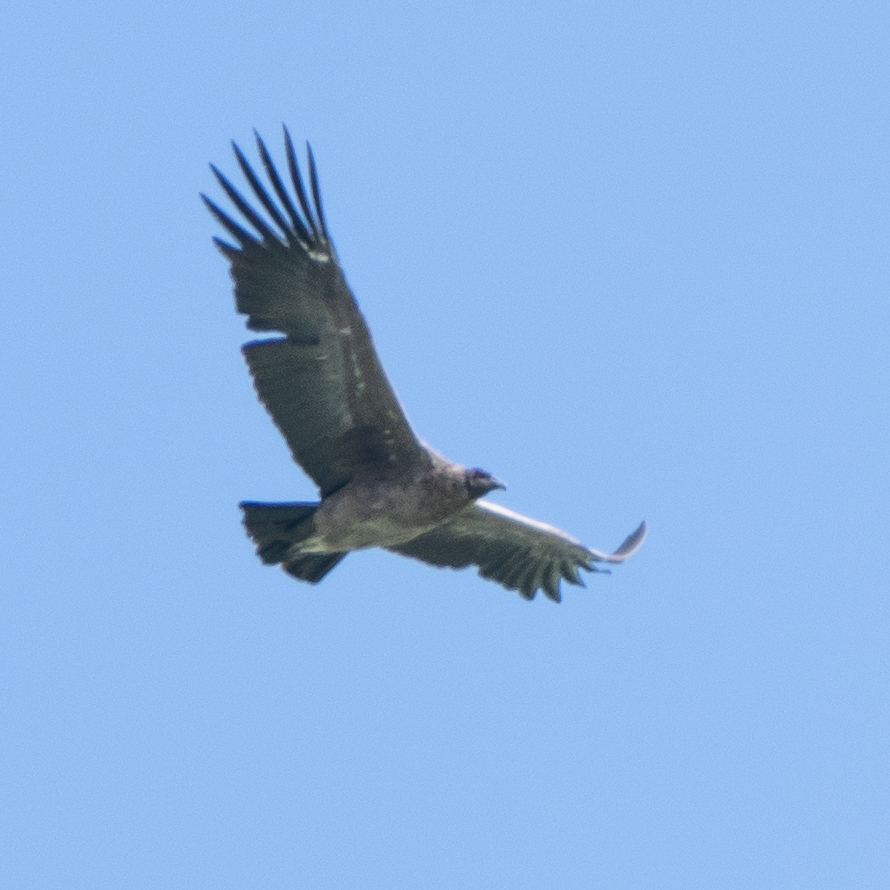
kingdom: Animalia
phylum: Chordata
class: Aves
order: Accipitriformes
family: Cathartidae
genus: Vultur
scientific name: Vultur gryphus
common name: Andean condor
